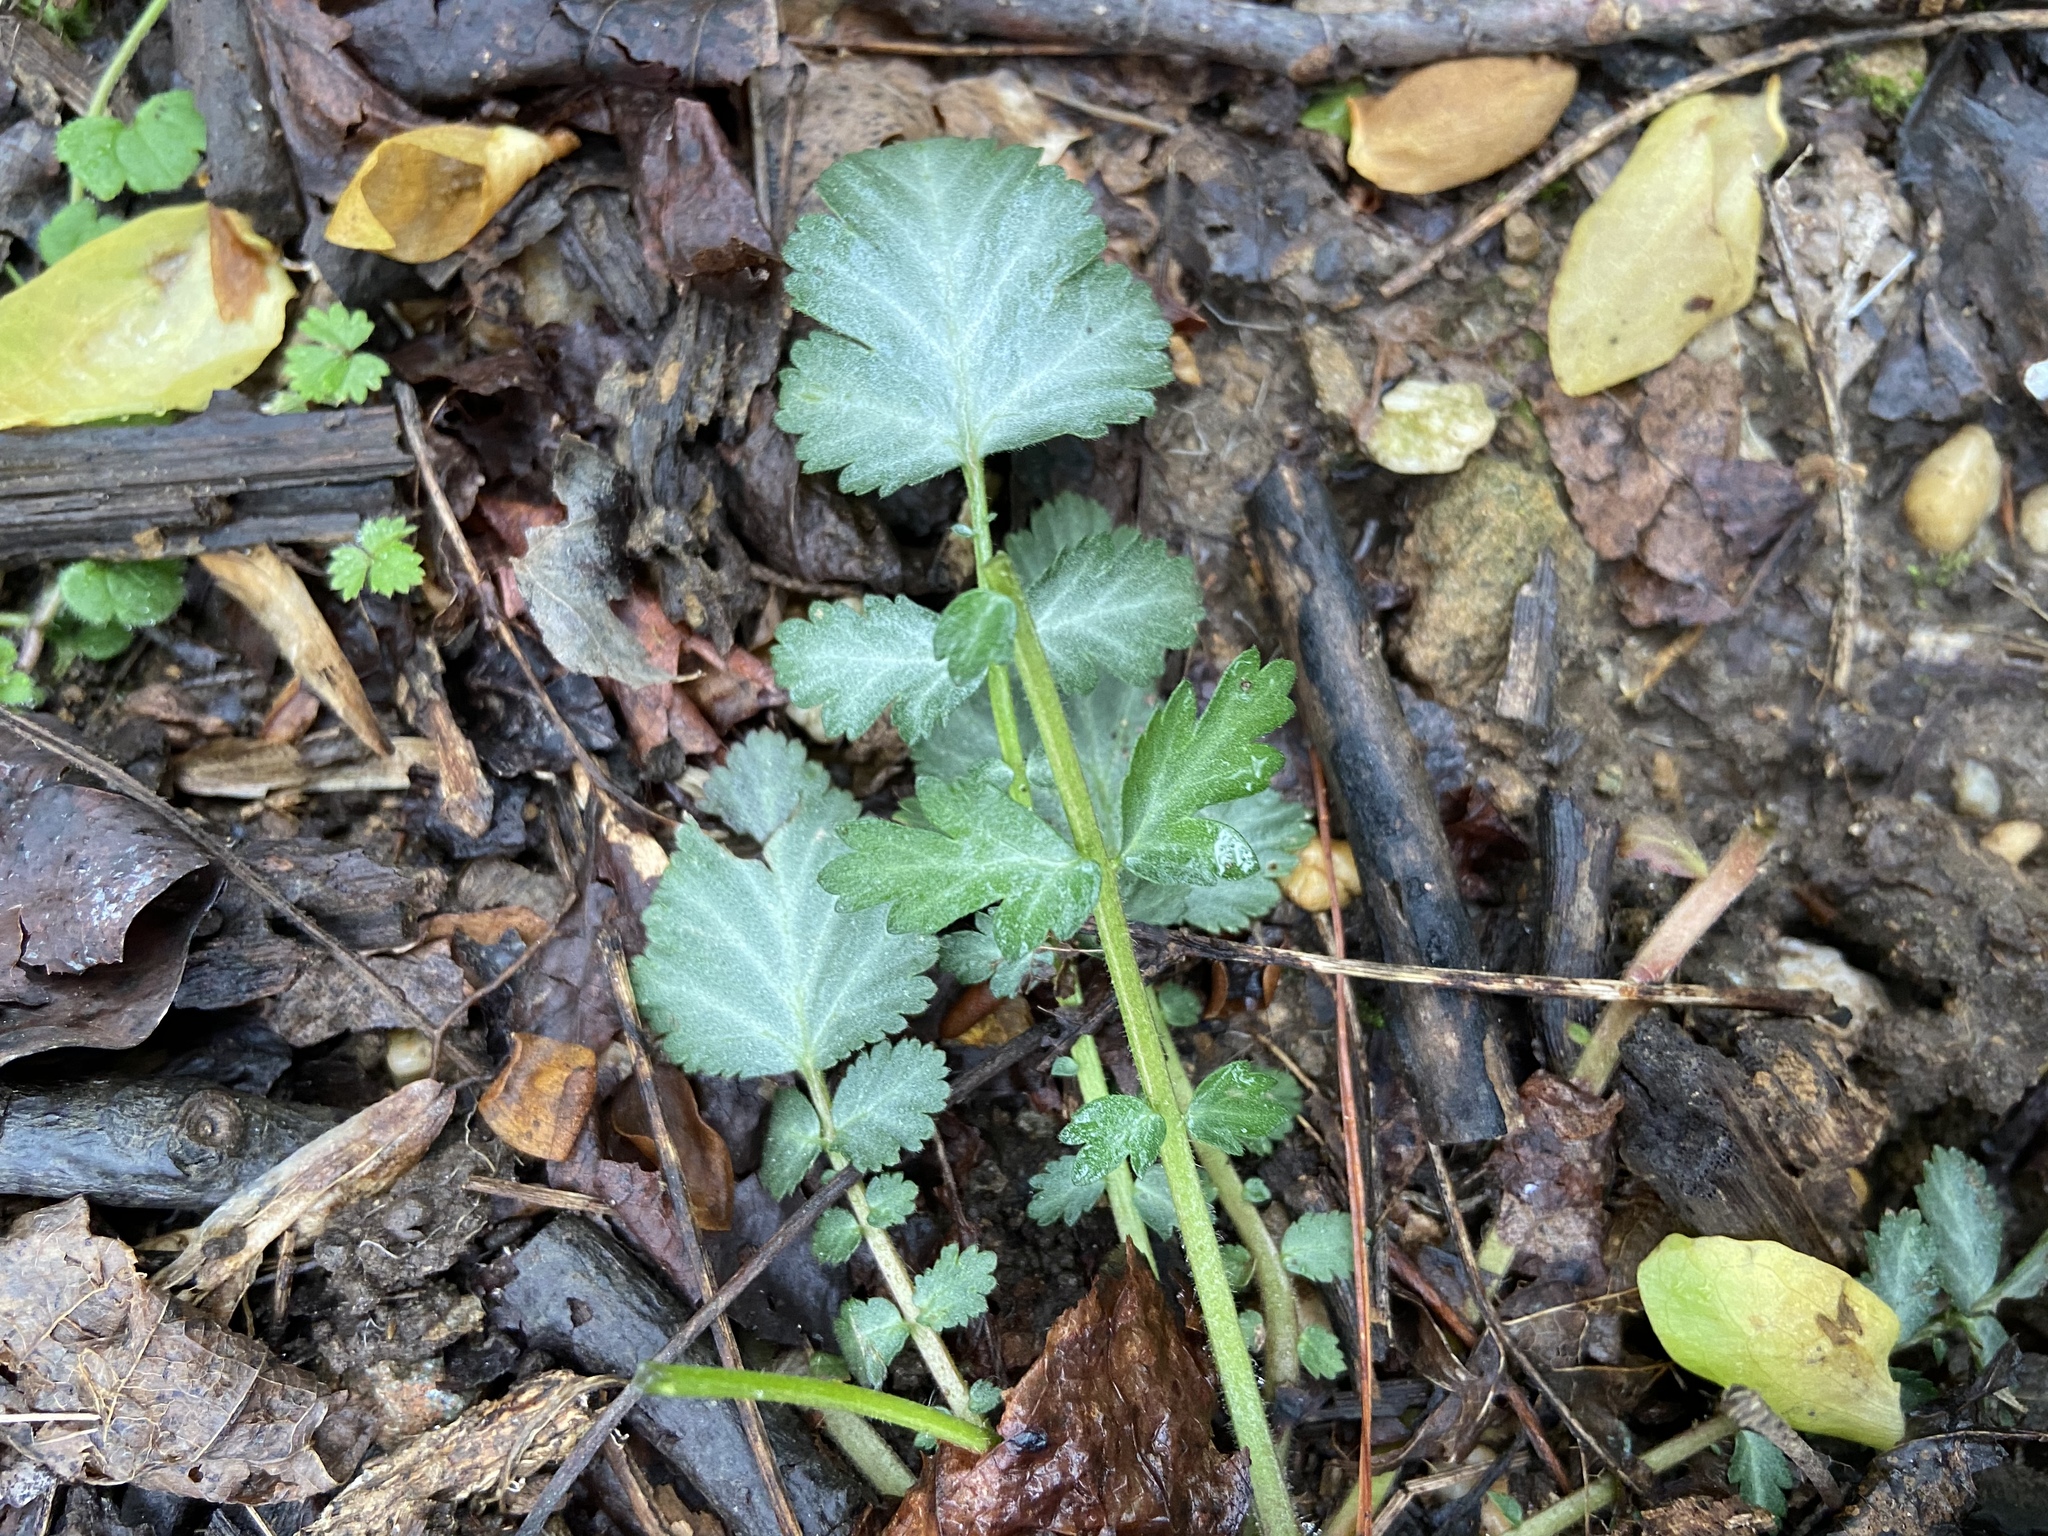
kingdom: Plantae
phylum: Tracheophyta
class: Magnoliopsida
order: Rosales
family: Rosaceae
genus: Geum
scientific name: Geum canadense
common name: White avens
